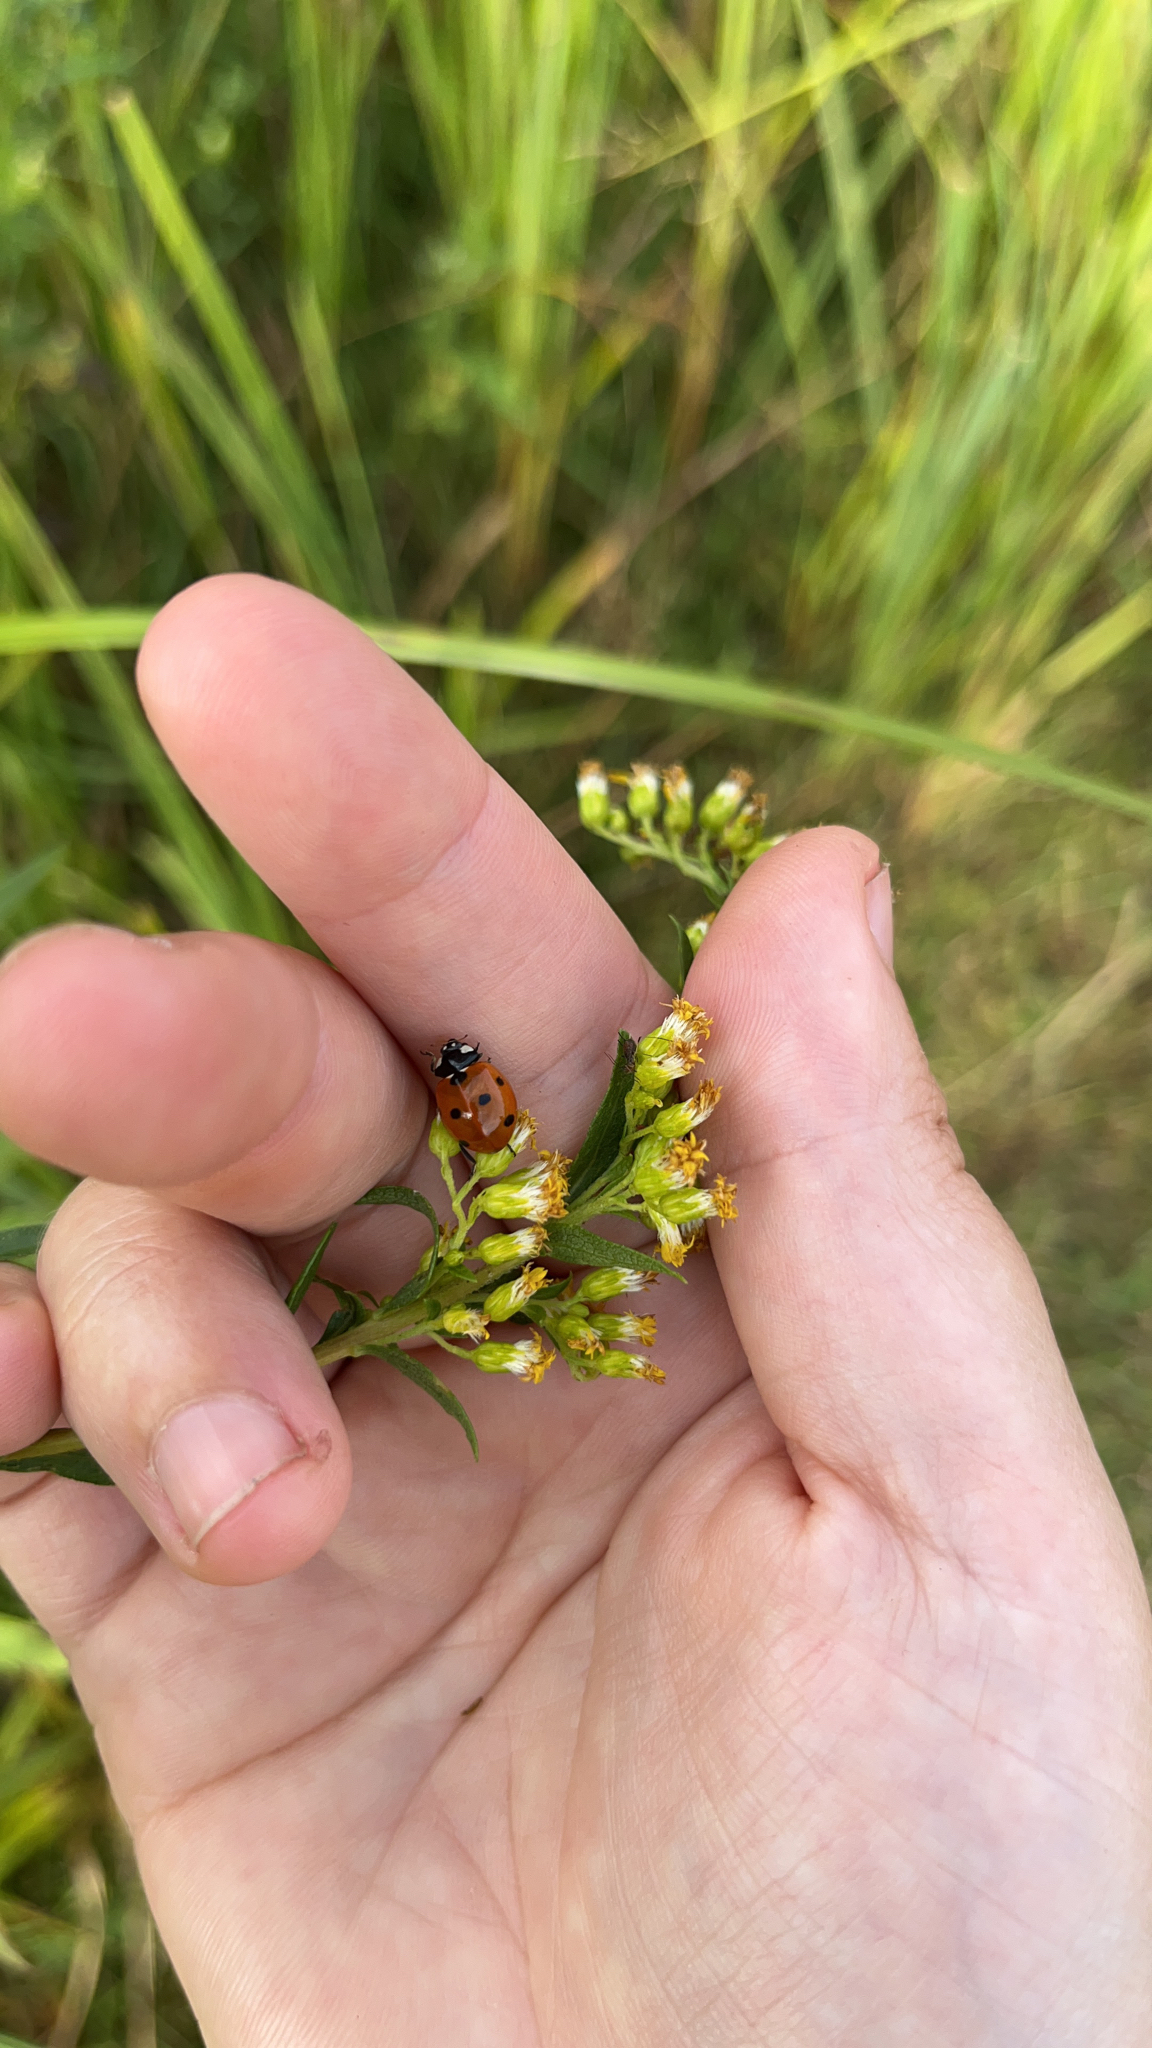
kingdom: Animalia
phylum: Arthropoda
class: Insecta
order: Coleoptera
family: Coccinellidae
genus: Coccinella
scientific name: Coccinella septempunctata
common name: Sevenspotted lady beetle
